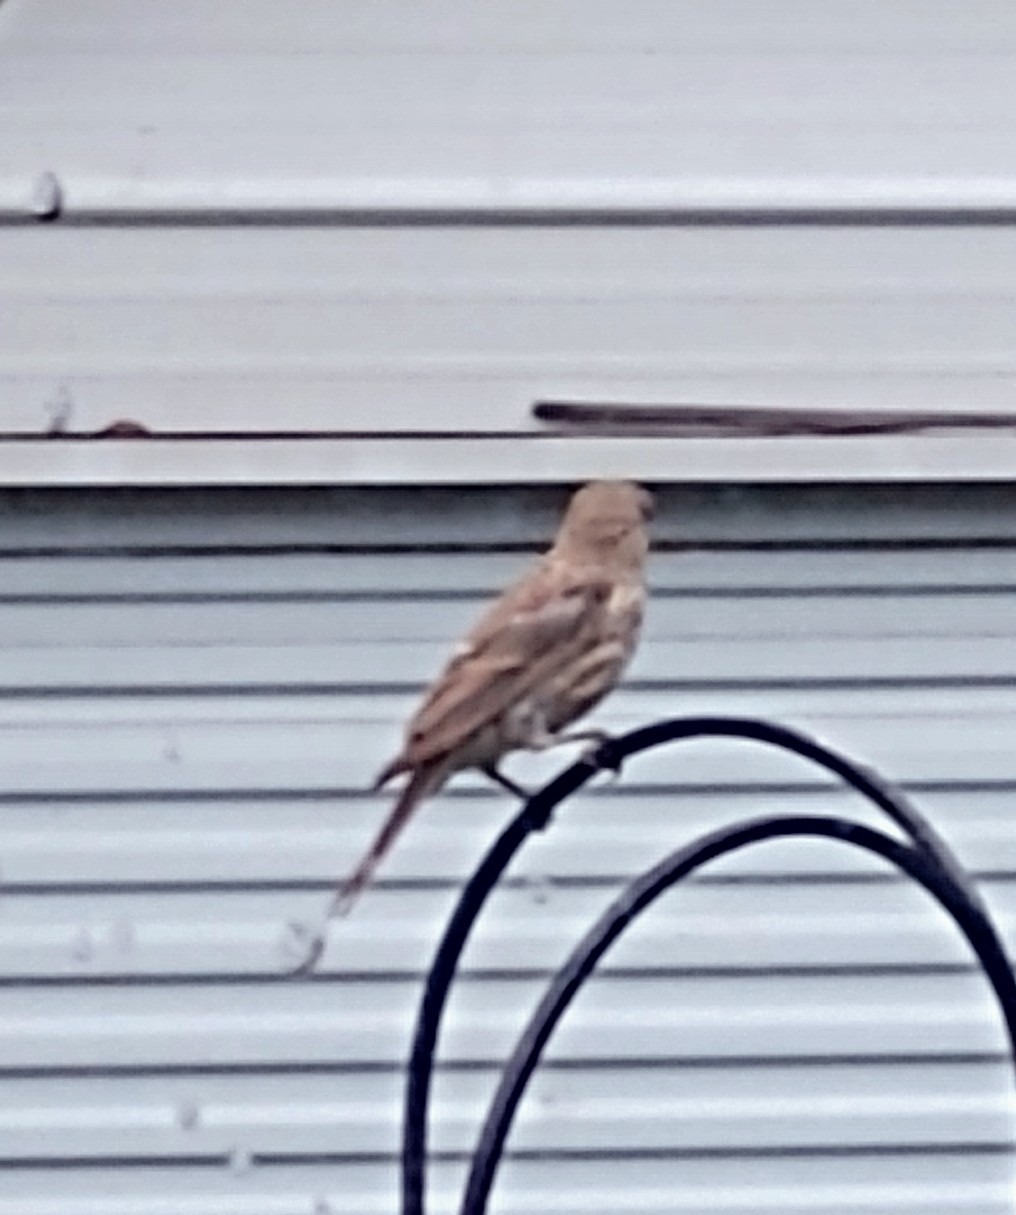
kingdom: Animalia
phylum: Chordata
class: Aves
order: Passeriformes
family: Fringillidae
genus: Haemorhous
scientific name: Haemorhous mexicanus
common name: House finch
